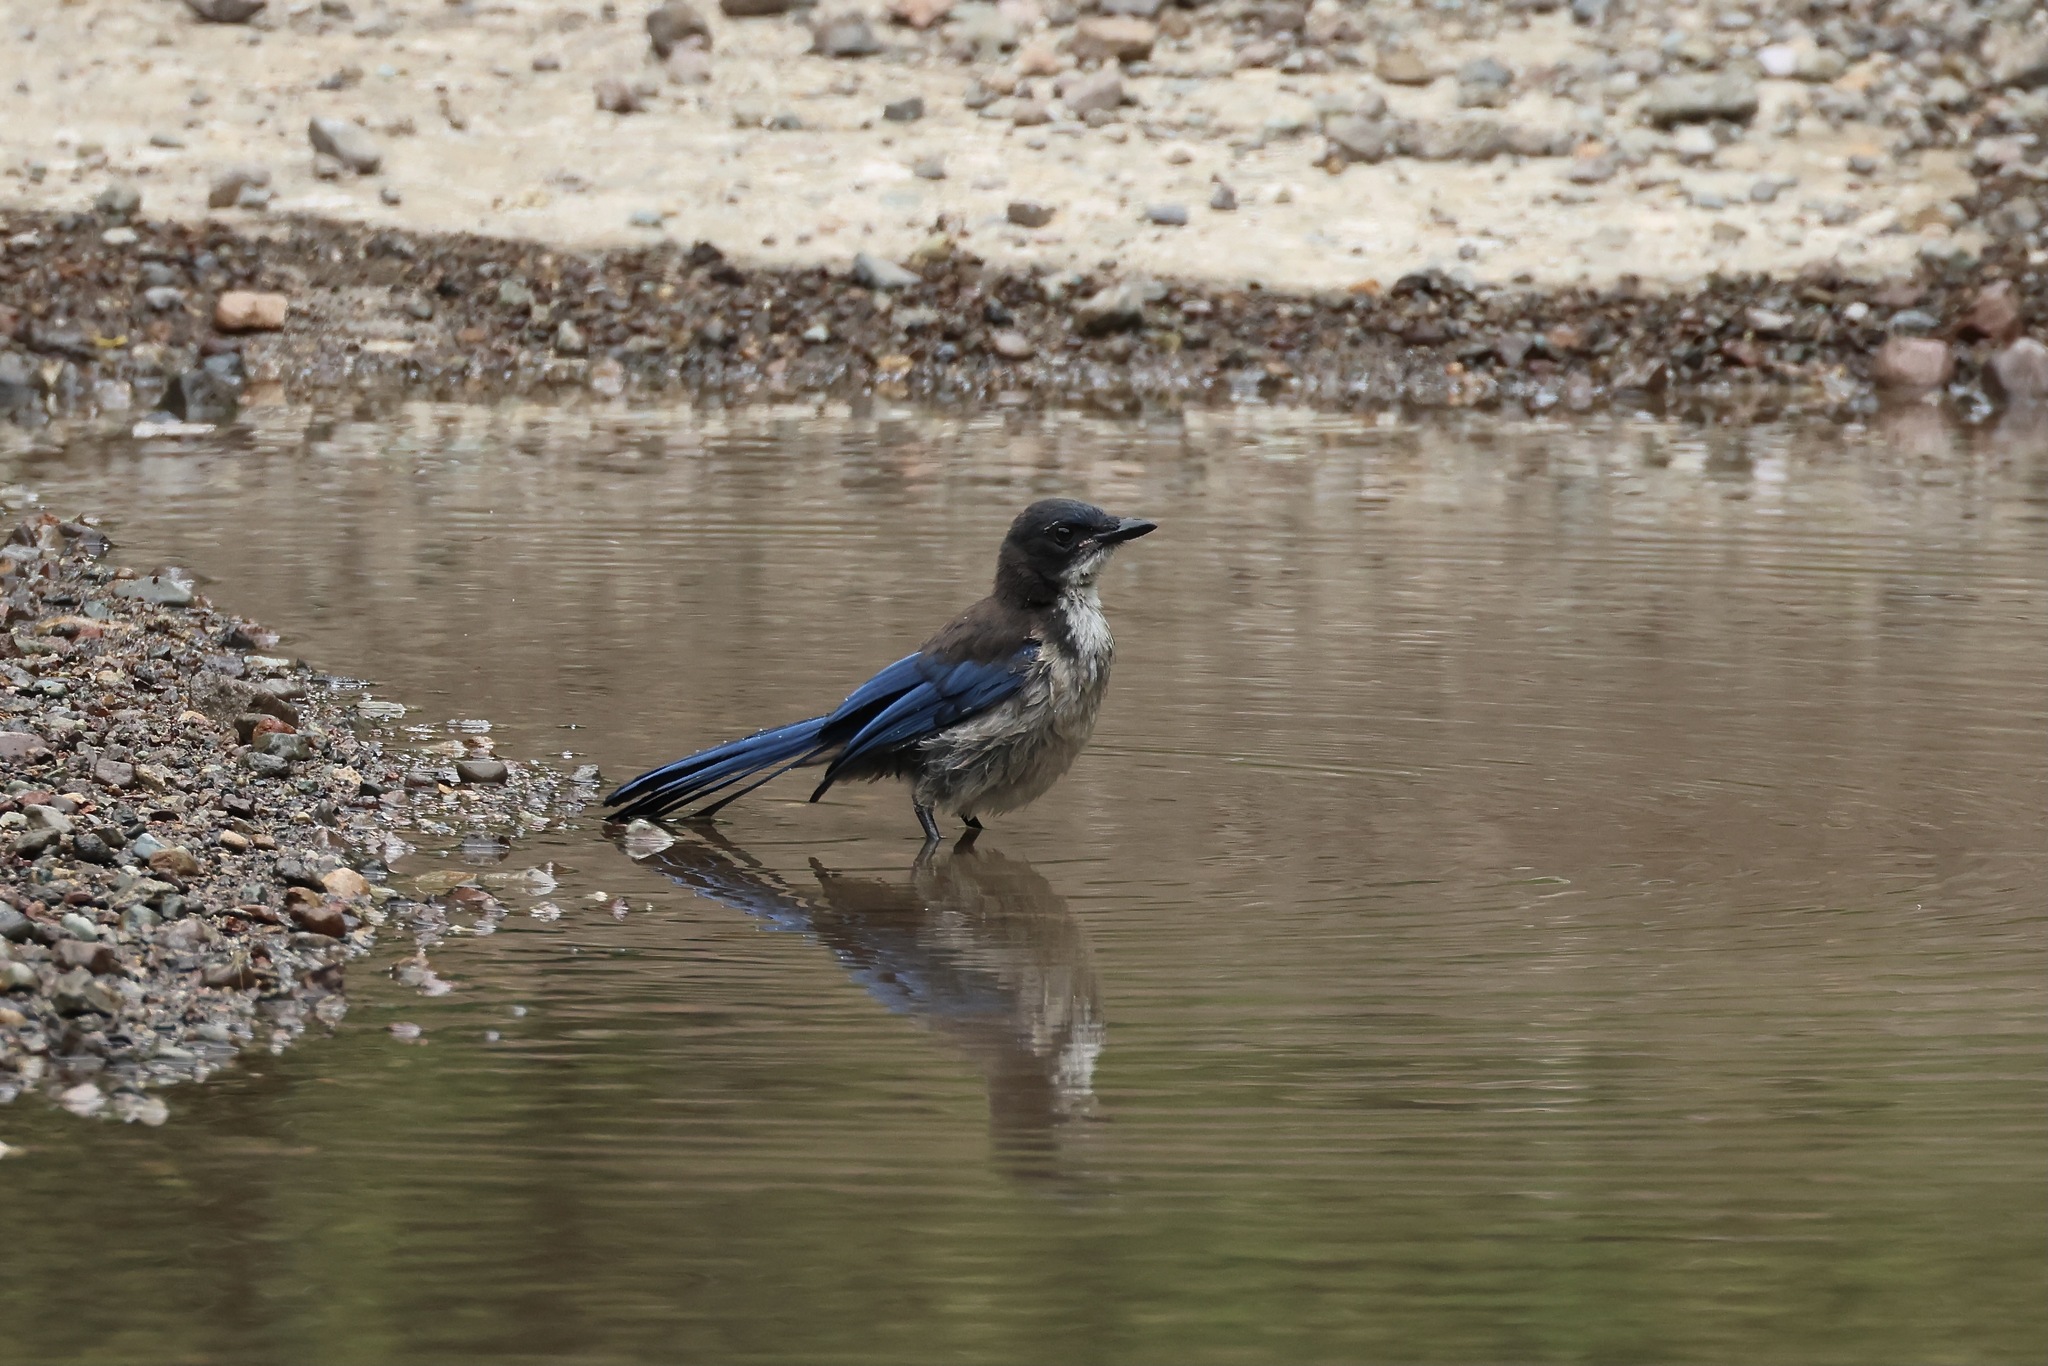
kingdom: Animalia
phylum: Chordata
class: Aves
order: Passeriformes
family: Corvidae
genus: Aphelocoma
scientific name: Aphelocoma insularis
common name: Island scrub-jay
